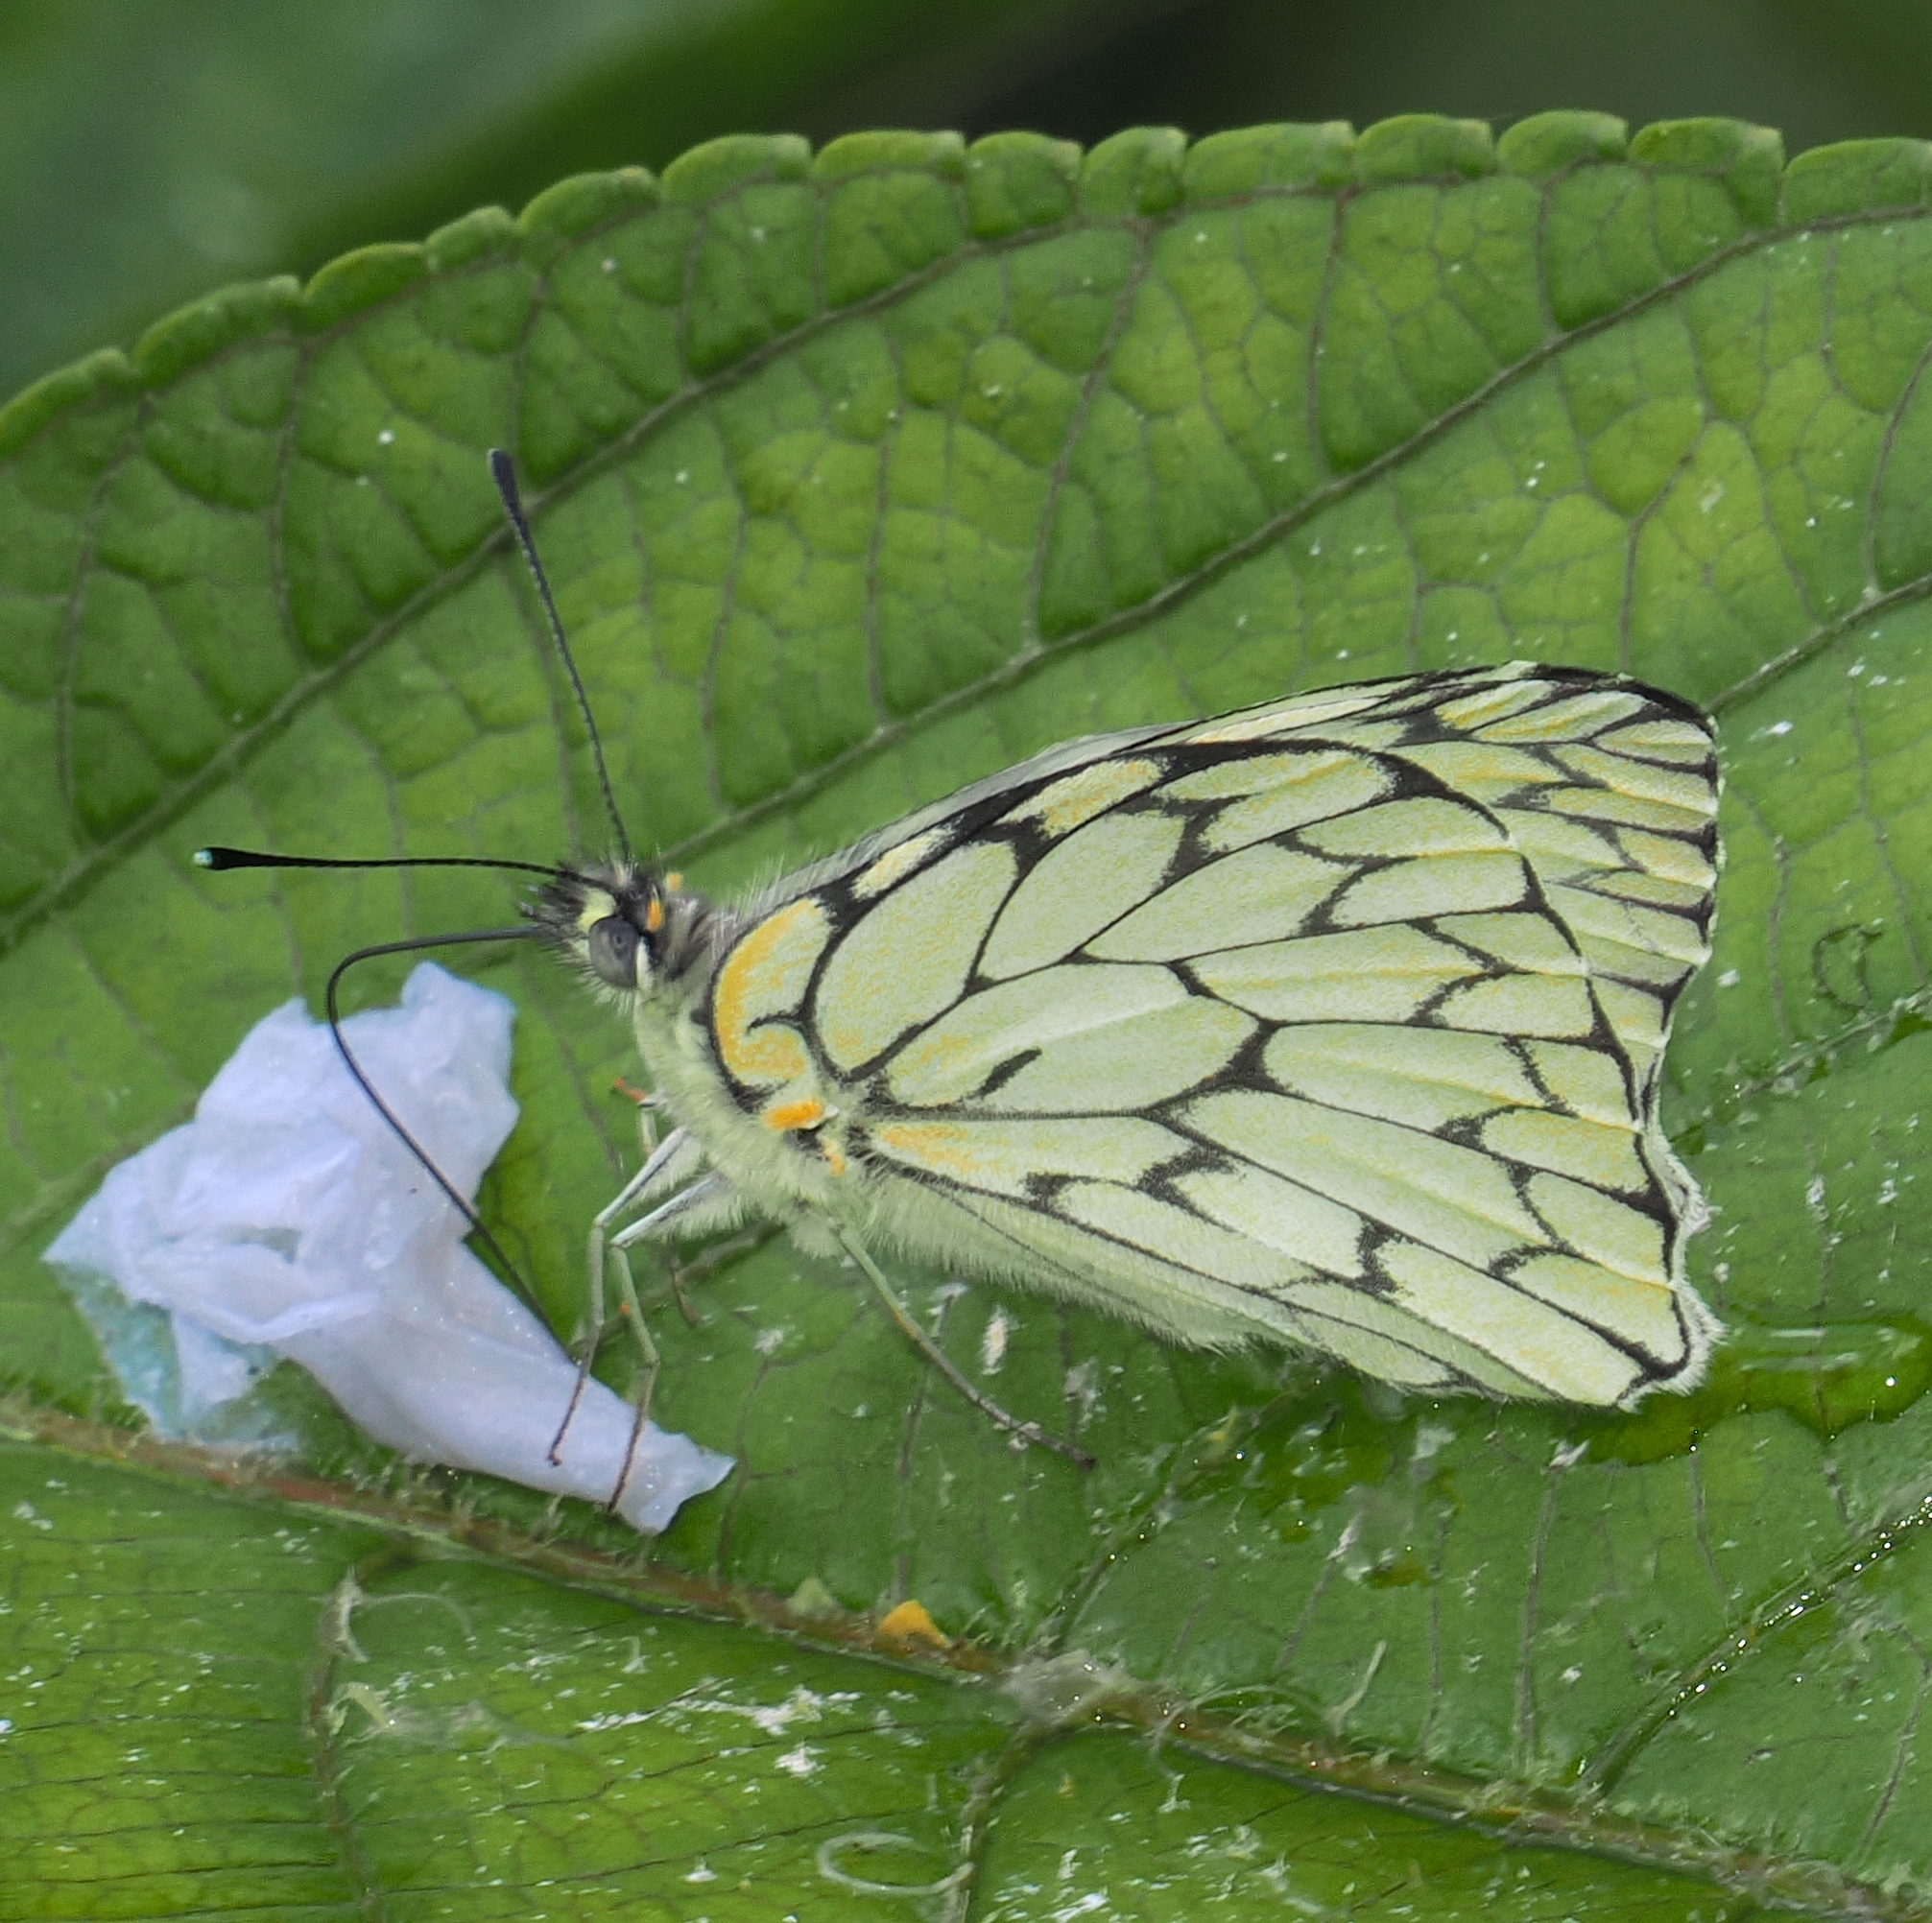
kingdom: Animalia
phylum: Arthropoda
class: Insecta
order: Lepidoptera
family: Pieridae
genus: Hesperocharis
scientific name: Hesperocharis marchalii
